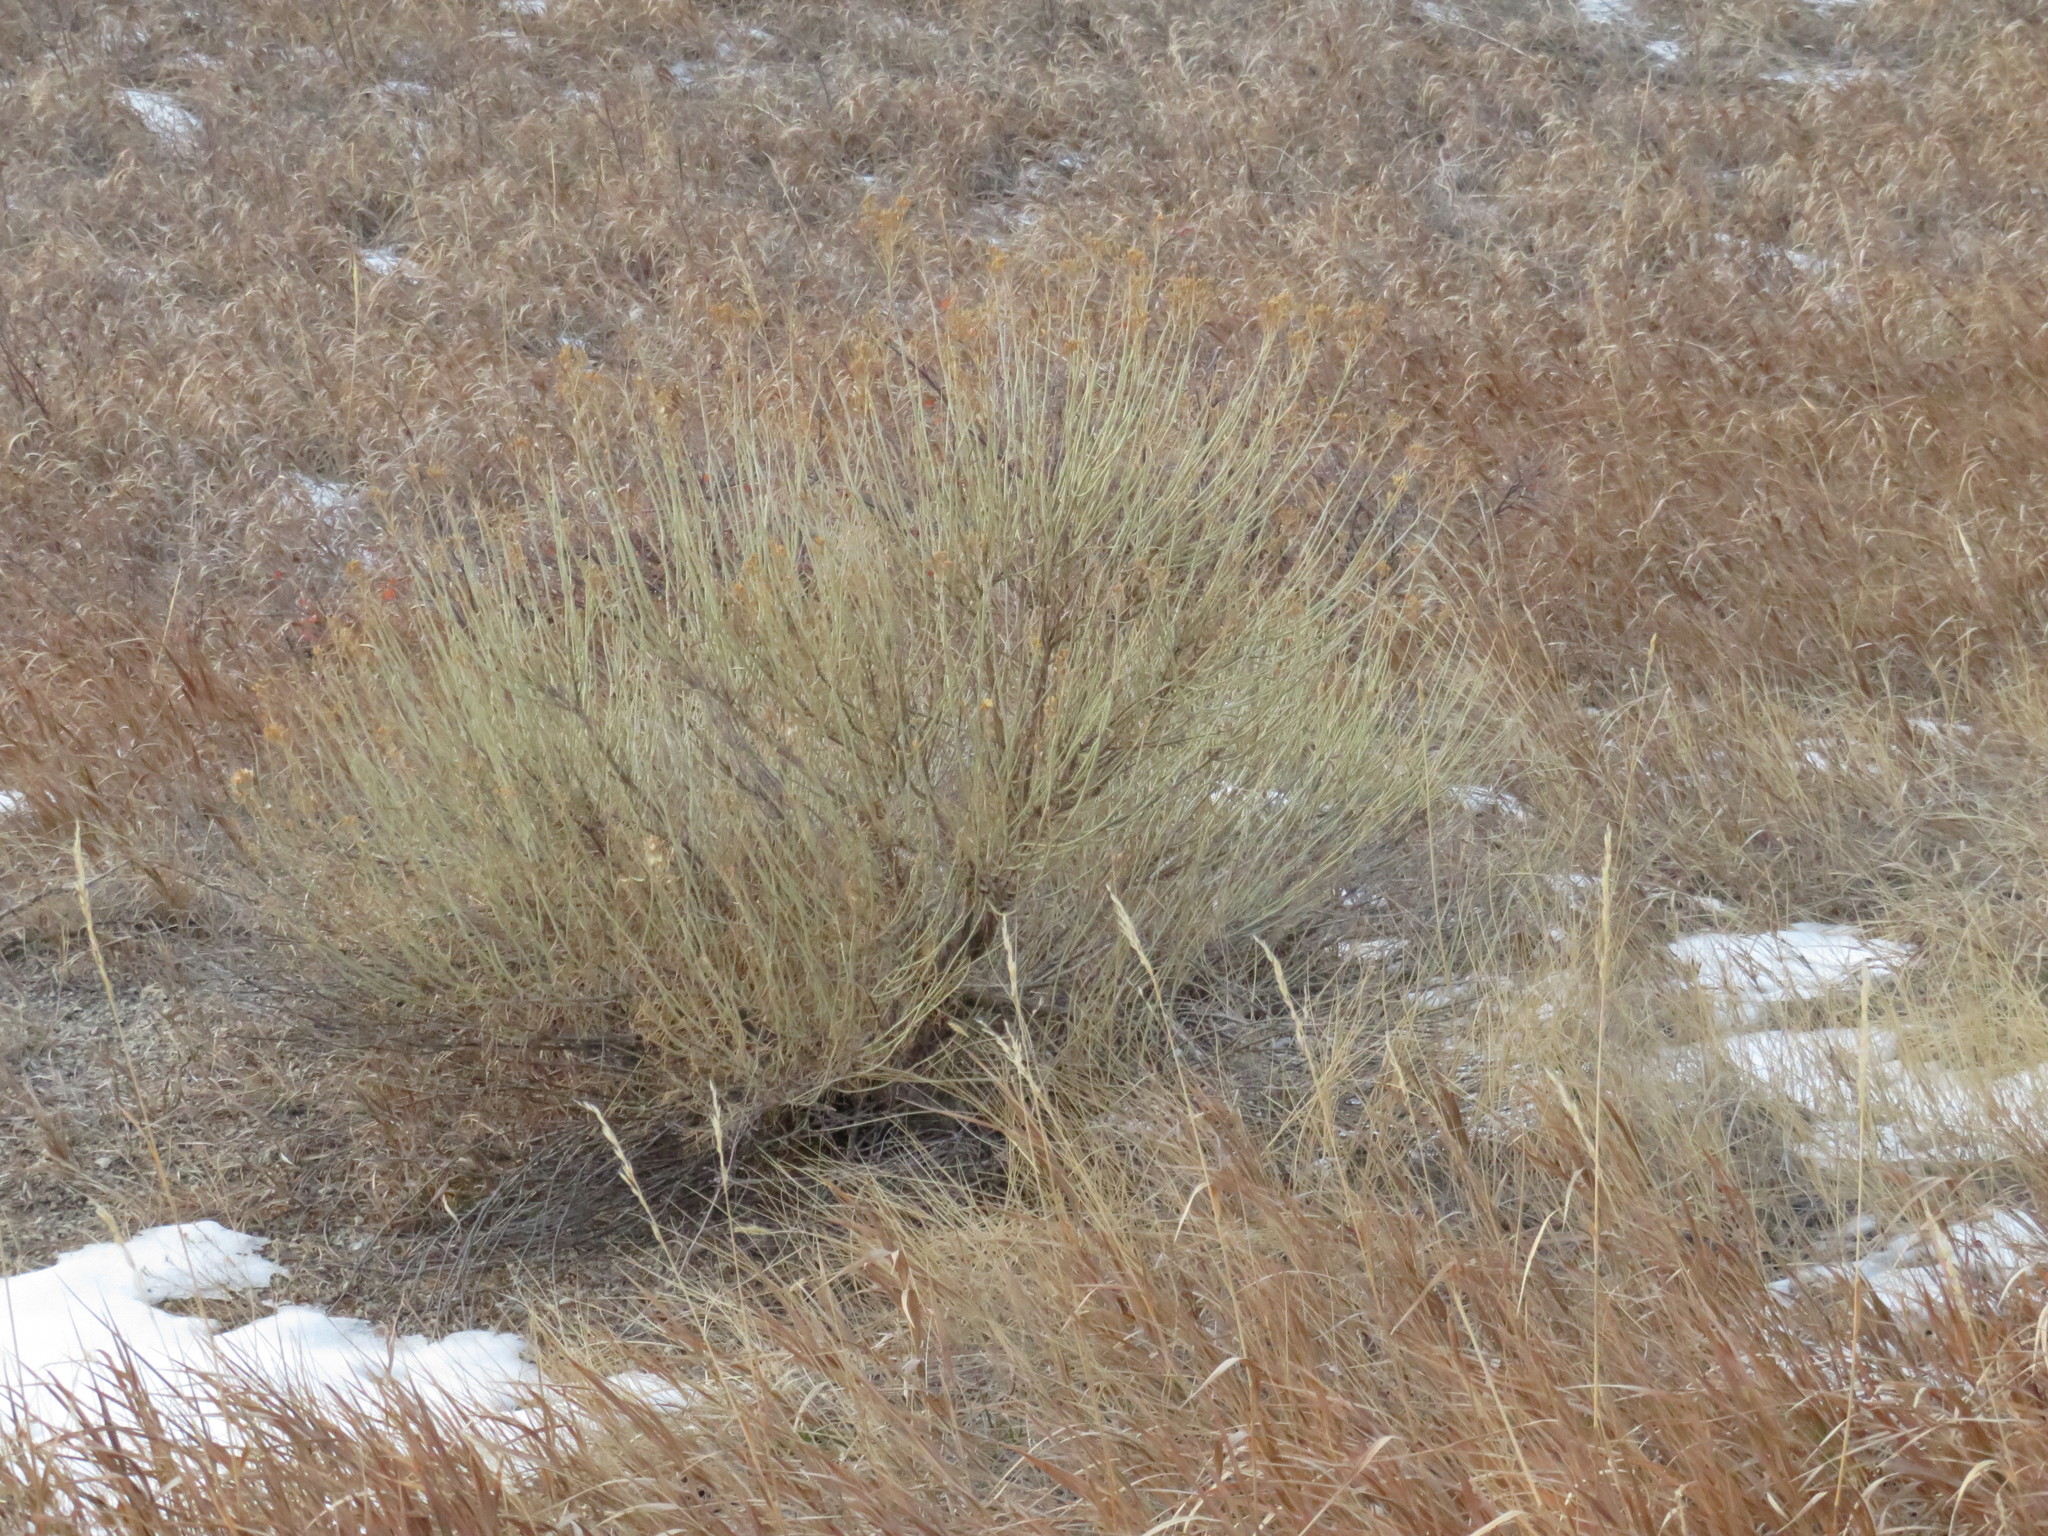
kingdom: Plantae
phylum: Tracheophyta
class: Magnoliopsida
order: Asterales
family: Asteraceae
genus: Ericameria
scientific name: Ericameria nauseosa
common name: Rubber rabbitbrush
